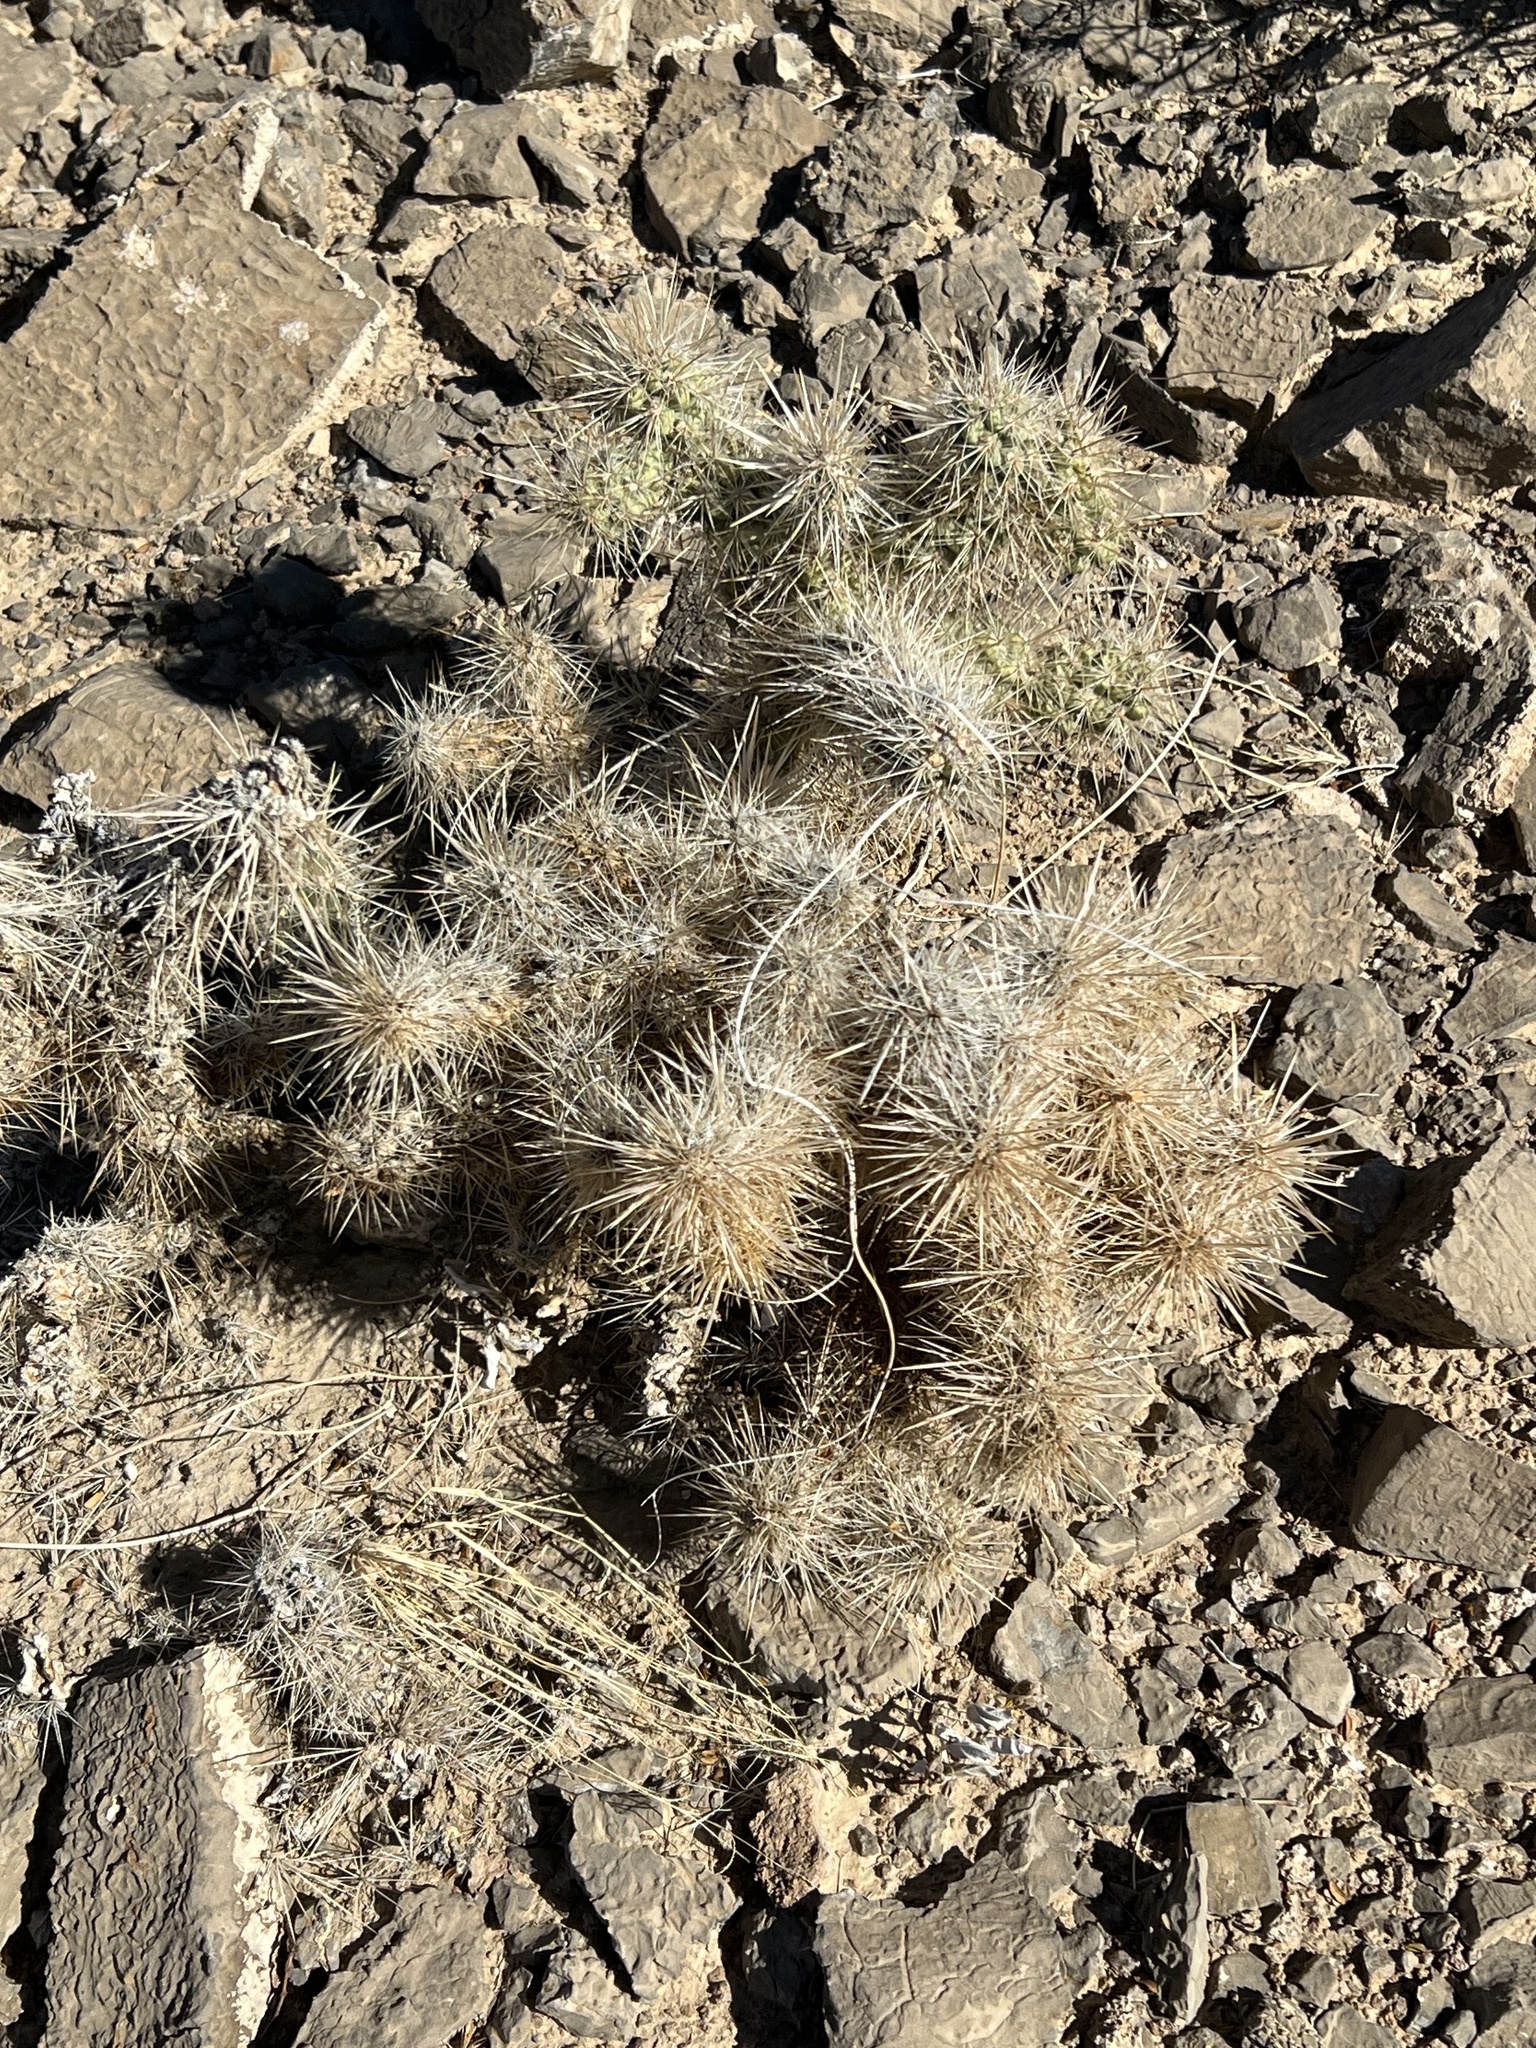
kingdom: Plantae
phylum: Tracheophyta
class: Magnoliopsida
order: Caryophyllales
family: Cactaceae
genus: Cylindropuntia
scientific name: Cylindropuntia echinocarpa
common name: Ground cholla
